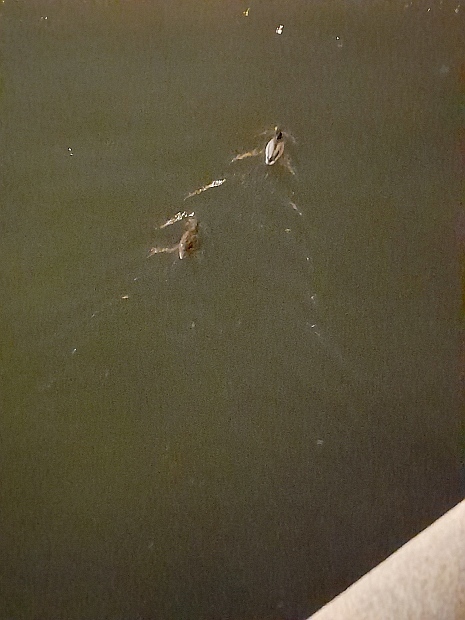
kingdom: Animalia
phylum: Chordata
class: Aves
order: Anseriformes
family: Anatidae
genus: Anas
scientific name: Anas platyrhynchos
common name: Mallard
